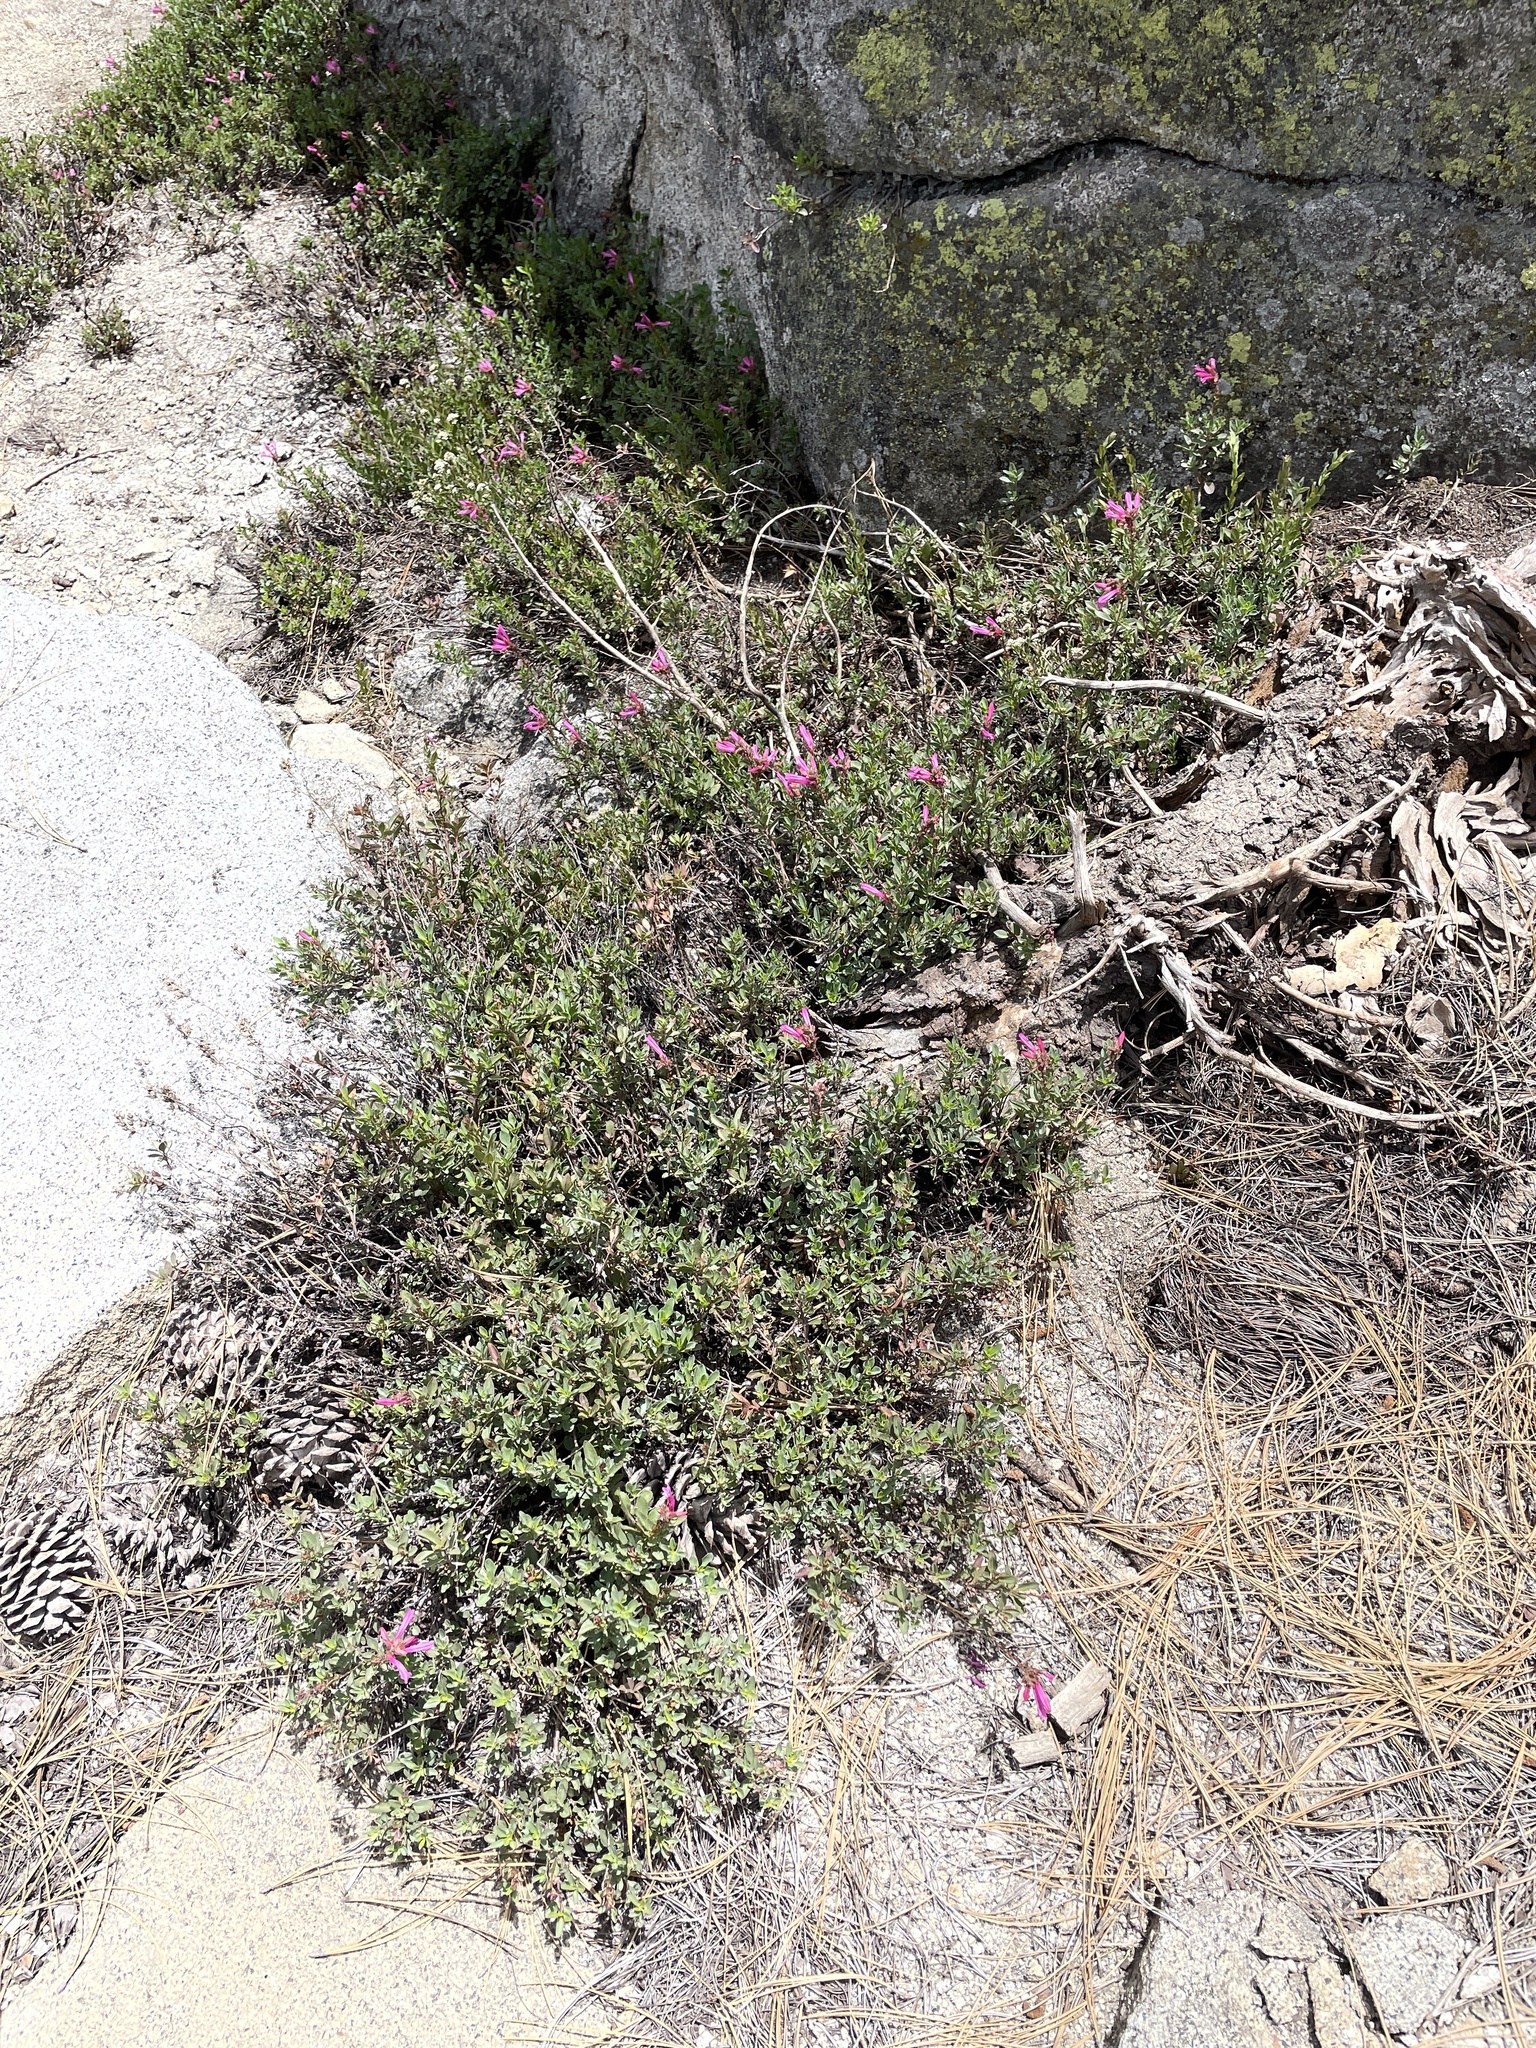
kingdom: Plantae
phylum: Tracheophyta
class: Magnoliopsida
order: Lamiales
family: Plantaginaceae
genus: Penstemon
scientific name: Penstemon newberryi
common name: Mountain-pride
